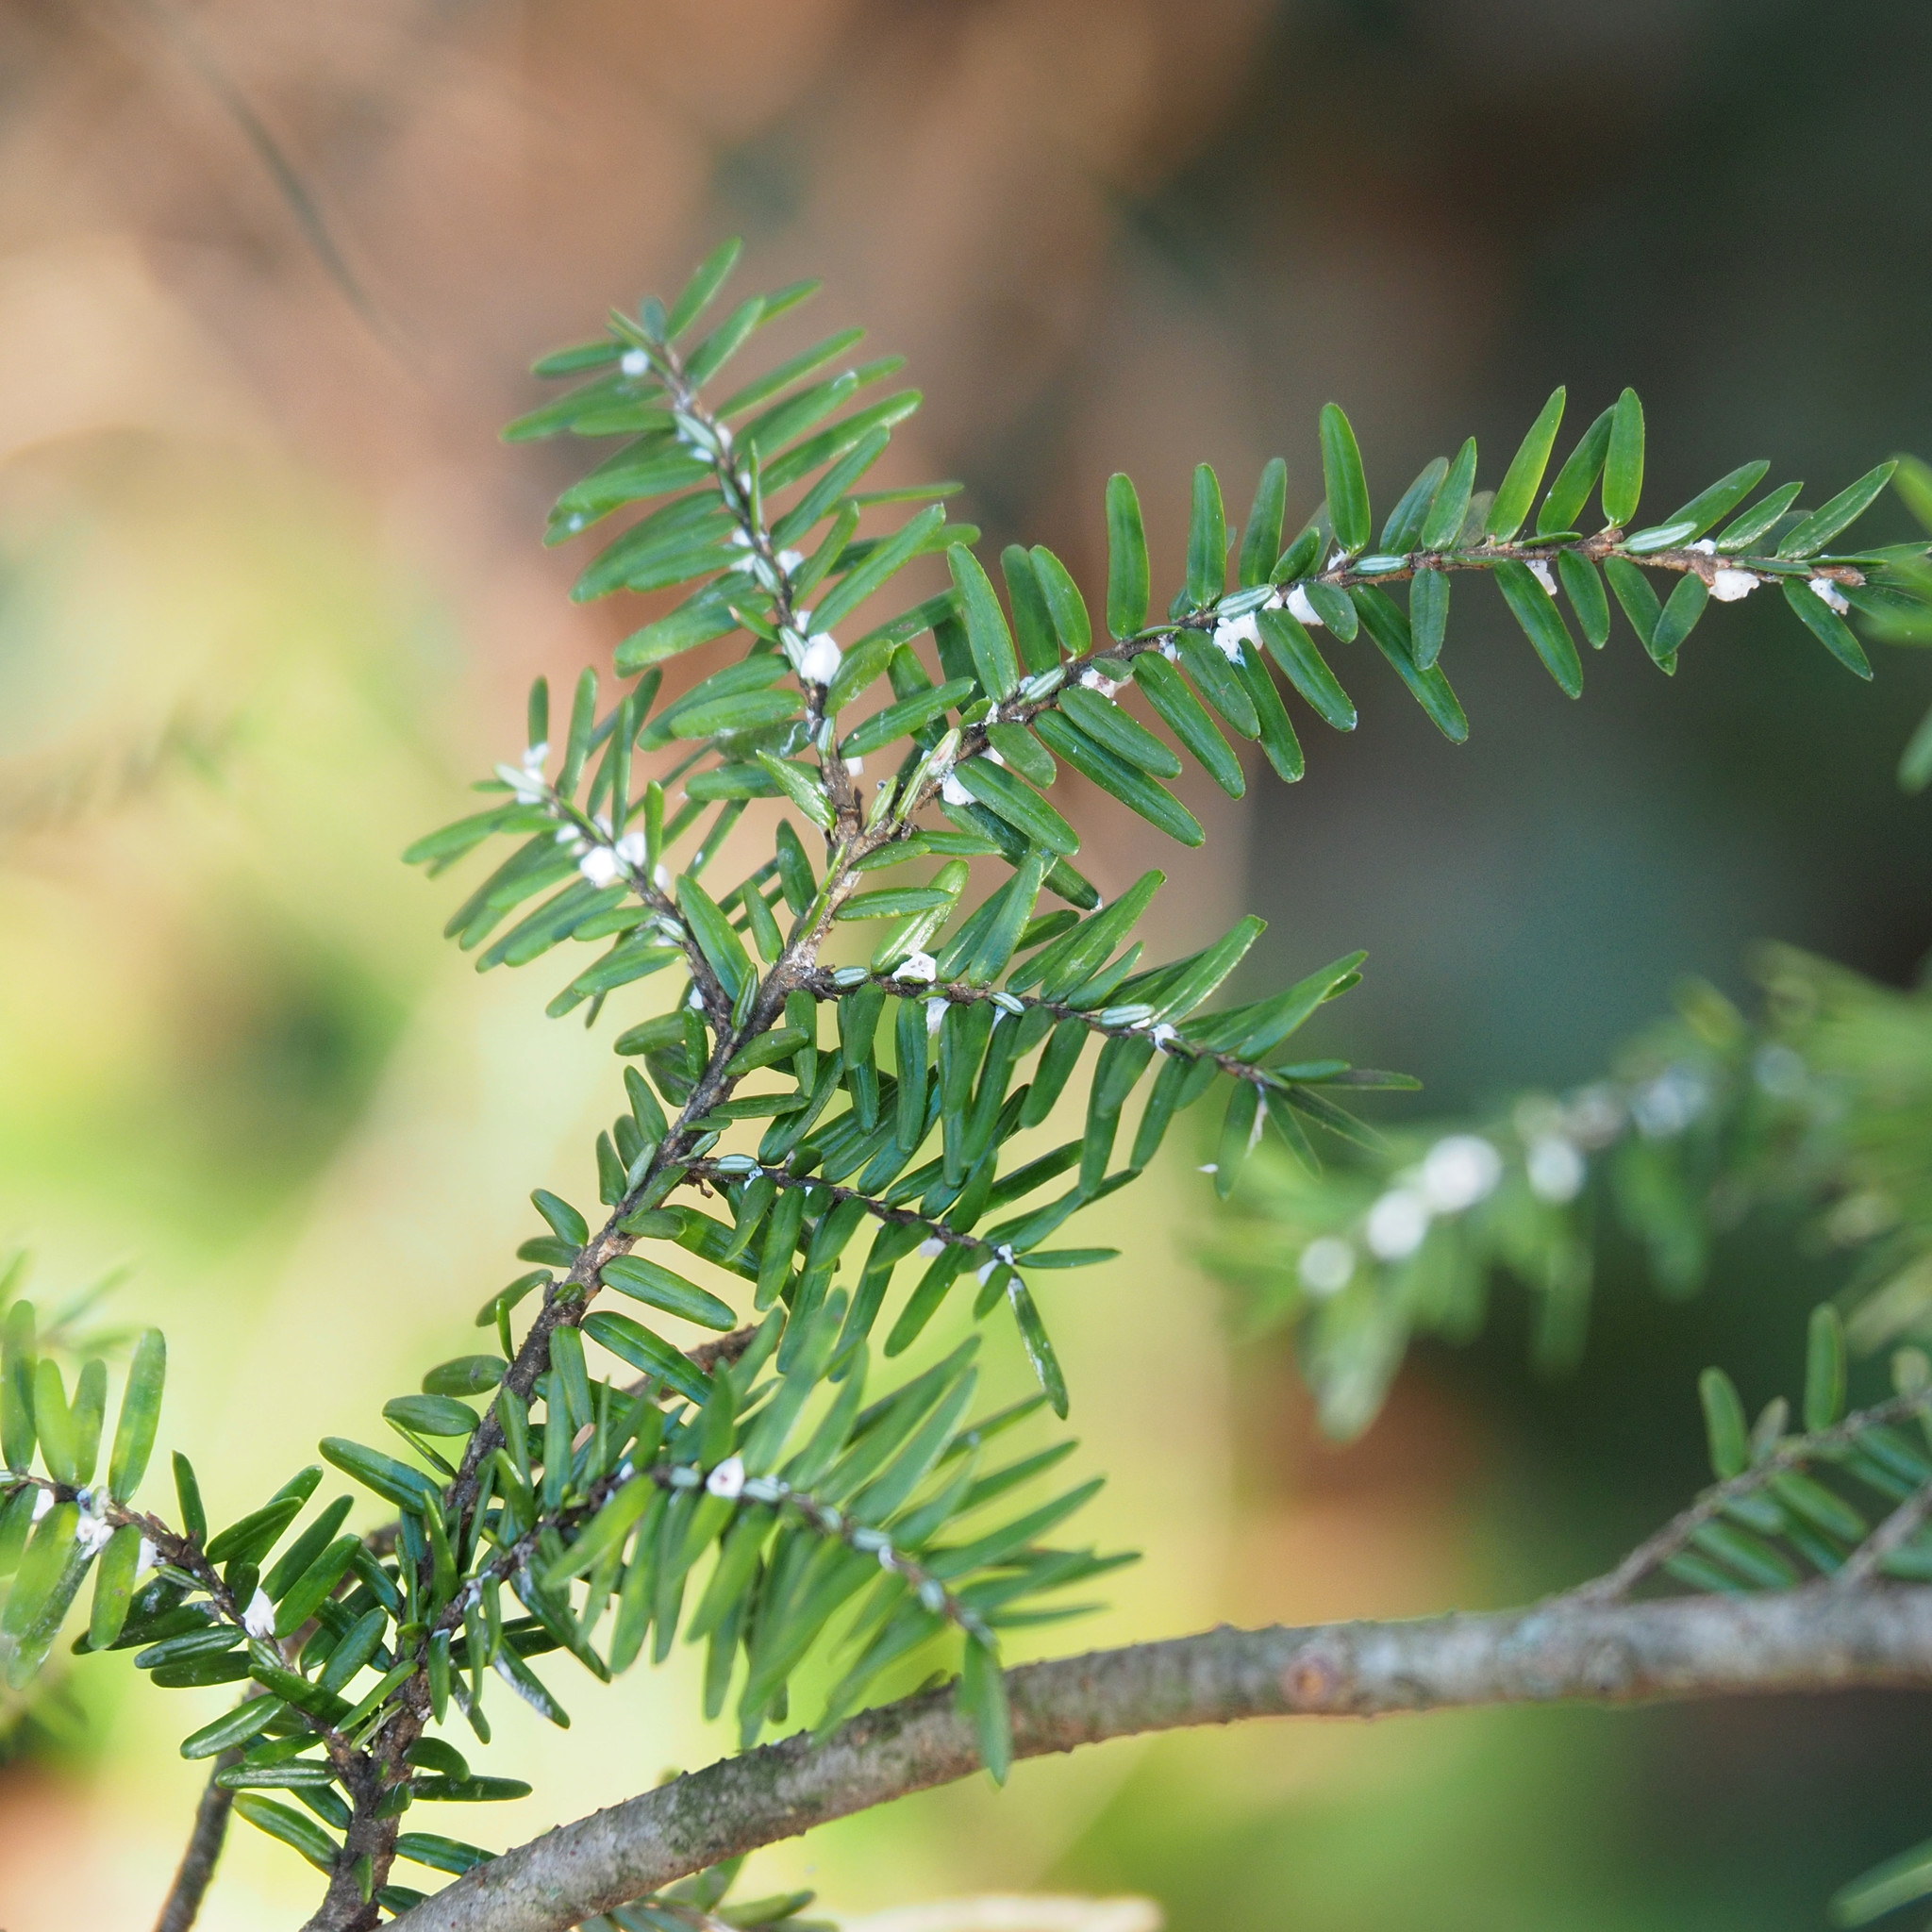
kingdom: Animalia
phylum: Arthropoda
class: Insecta
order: Hemiptera
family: Adelgidae
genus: Adelges
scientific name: Adelges tsugae
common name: Hemlock woolly adelgid
